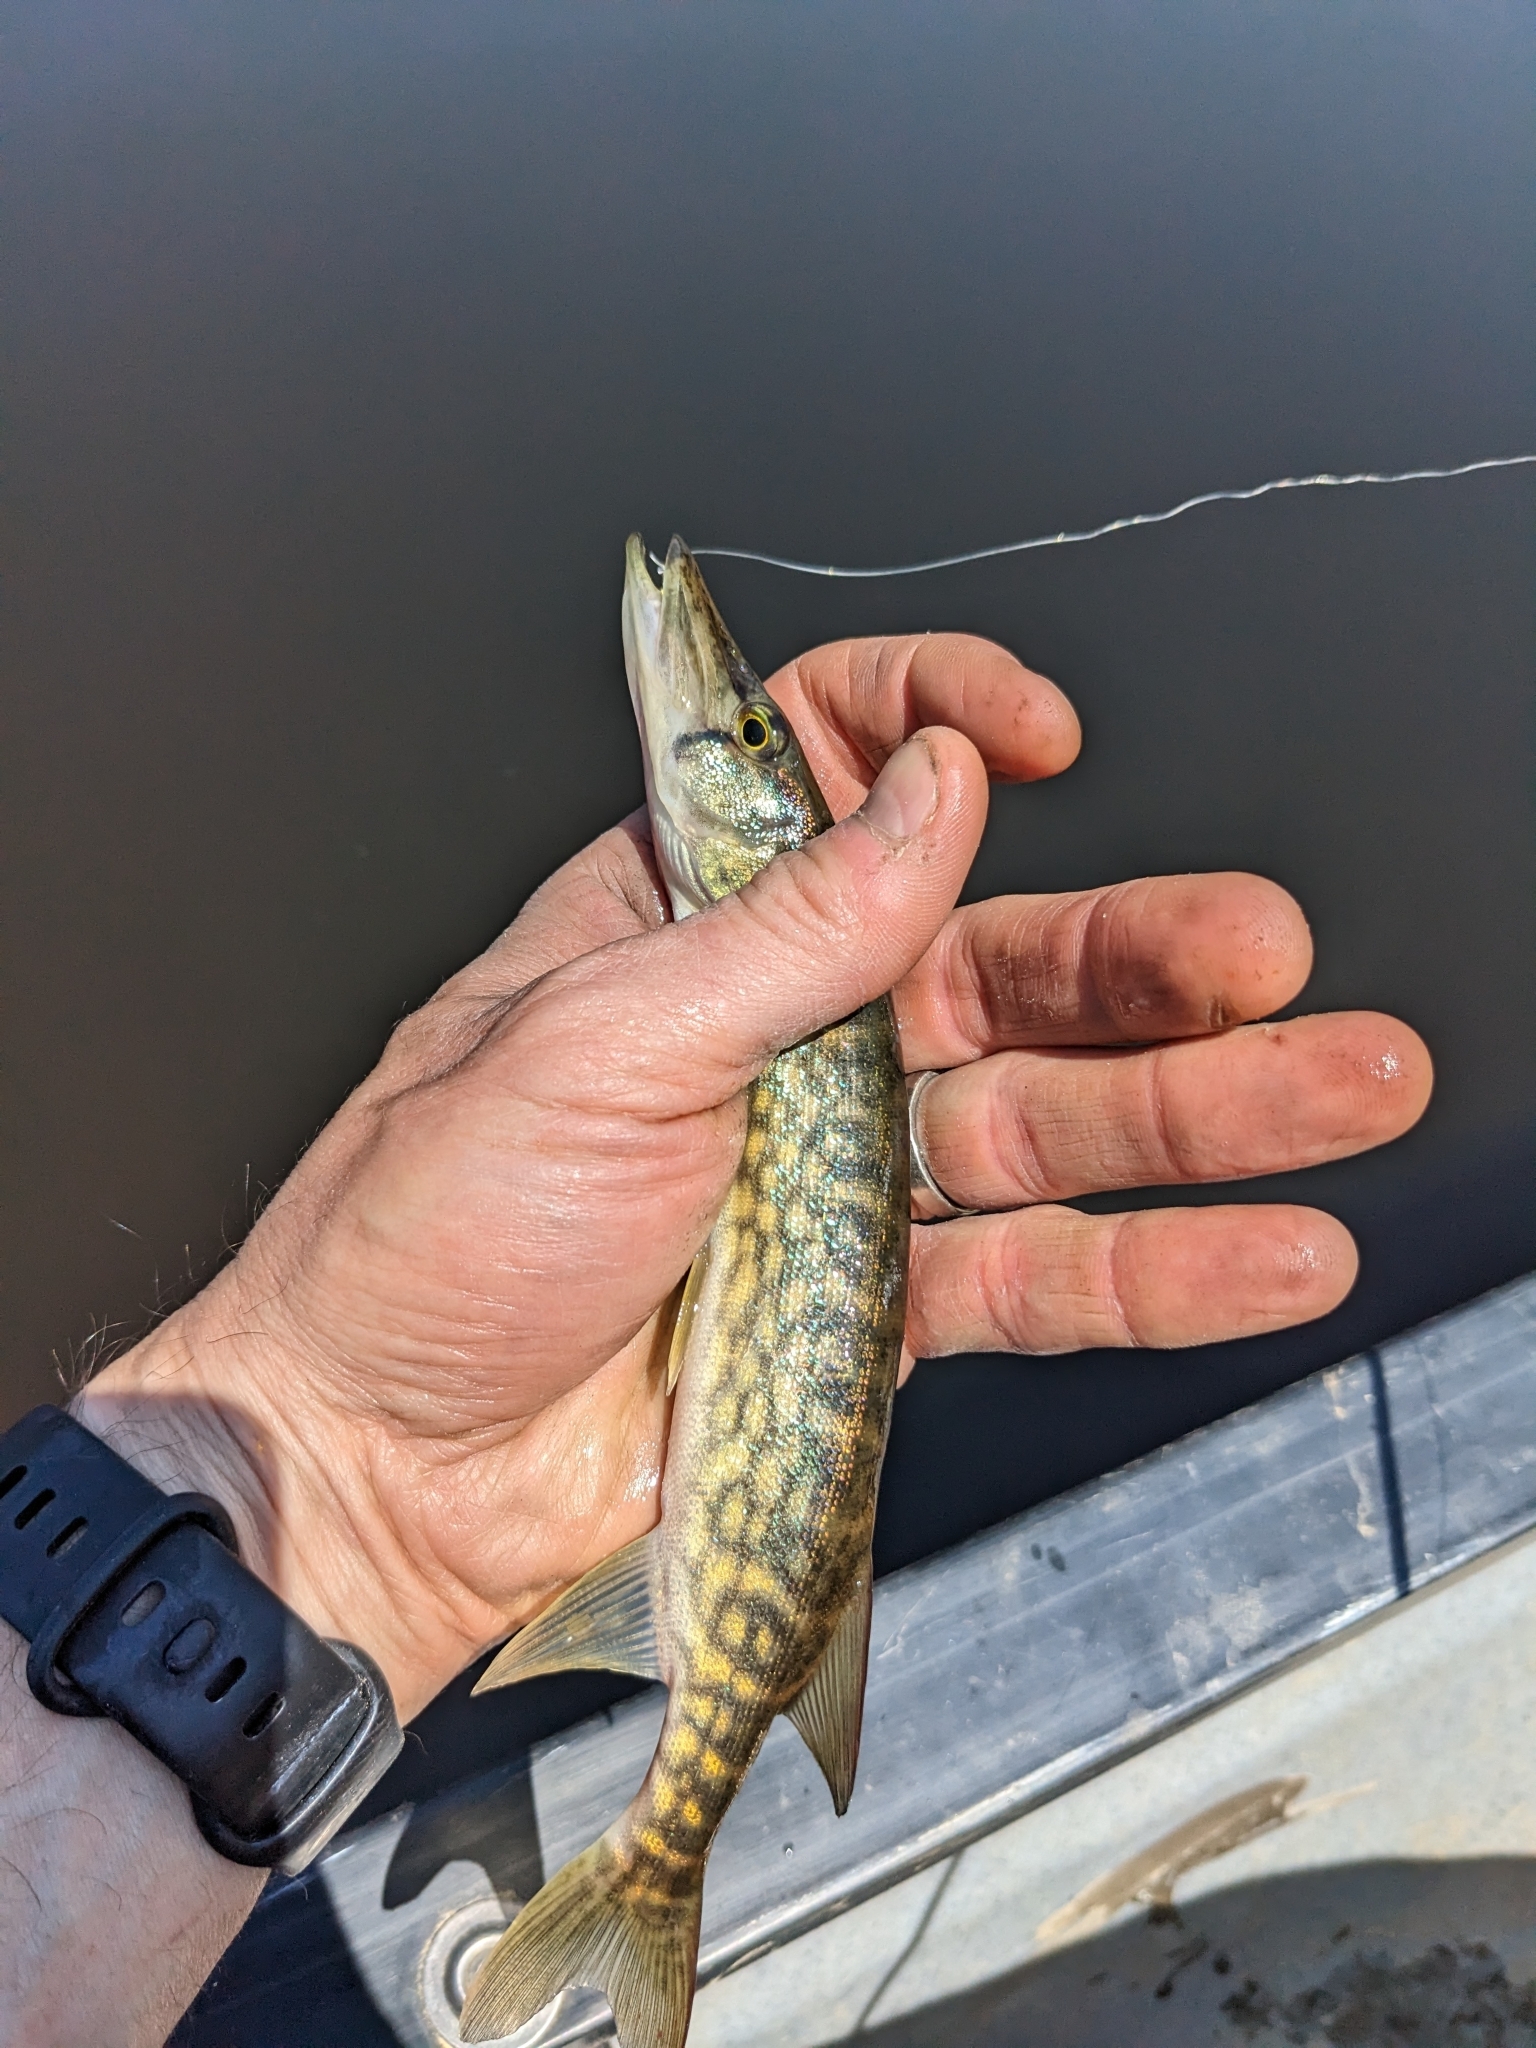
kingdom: Animalia
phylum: Chordata
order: Esociformes
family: Esocidae
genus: Esox
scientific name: Esox niger
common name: Chain pickerel
